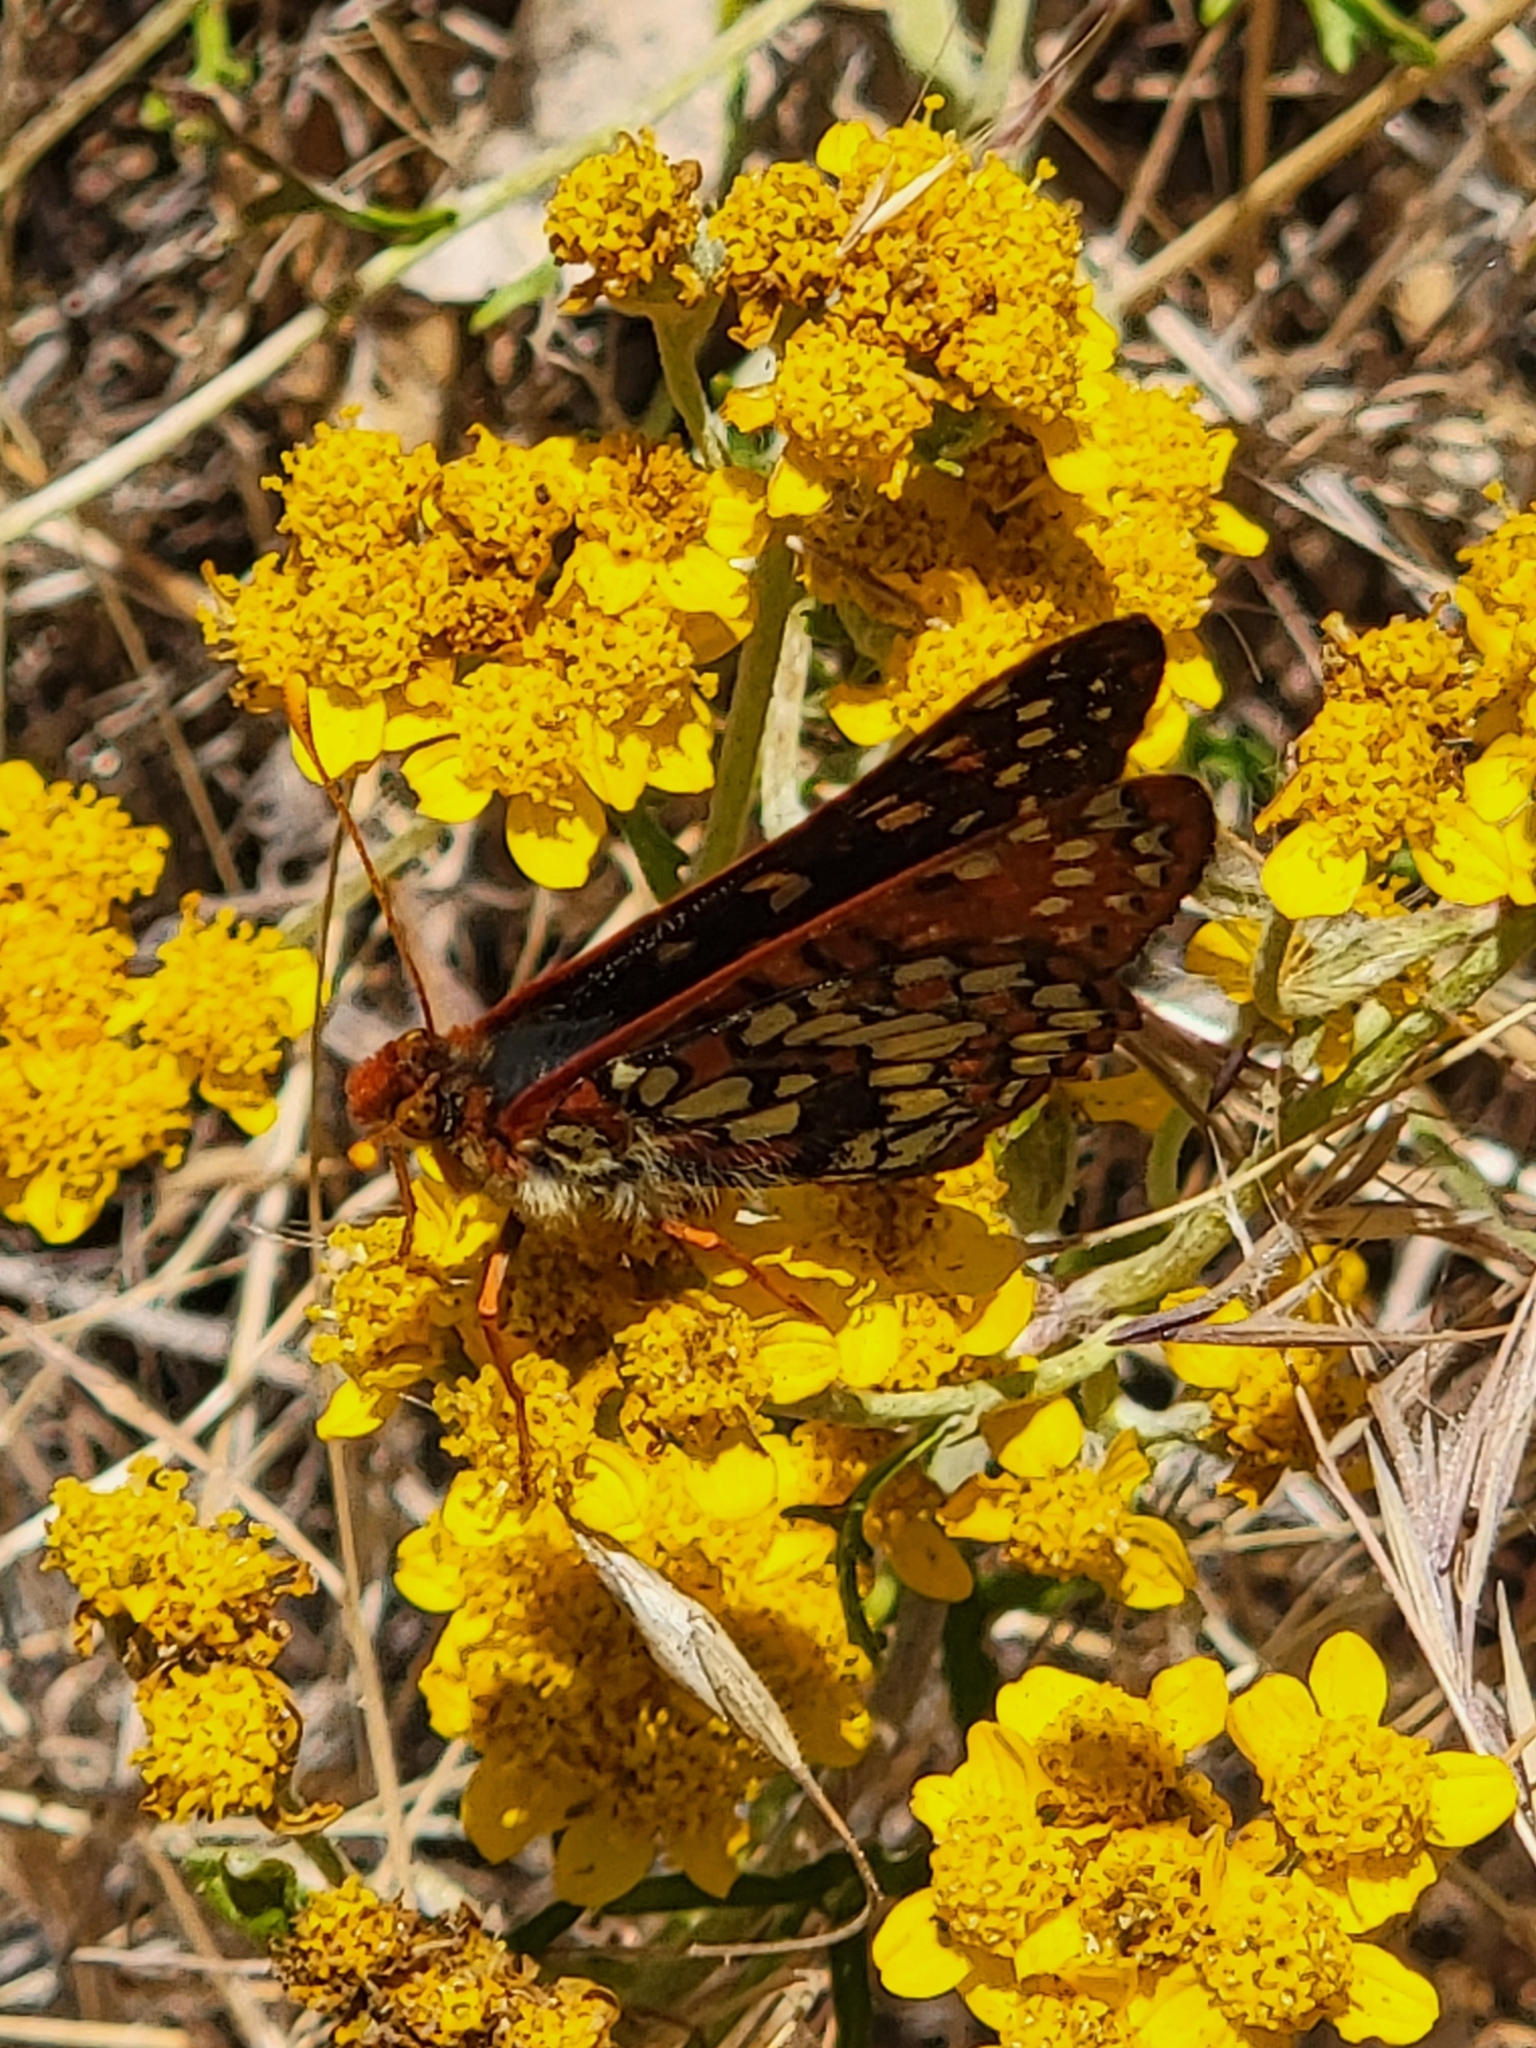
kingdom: Animalia
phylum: Arthropoda
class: Insecta
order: Lepidoptera
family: Nymphalidae
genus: Occidryas
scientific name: Occidryas chalcedona
